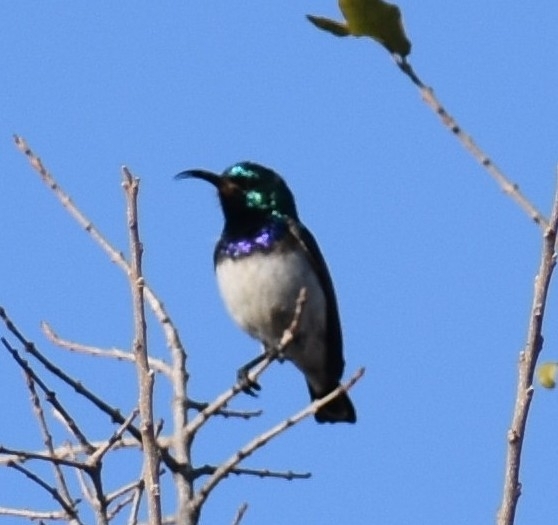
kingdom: Animalia
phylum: Chordata
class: Aves
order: Passeriformes
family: Nectariniidae
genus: Cinnyris
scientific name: Cinnyris talatala
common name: White-bellied sunbird
